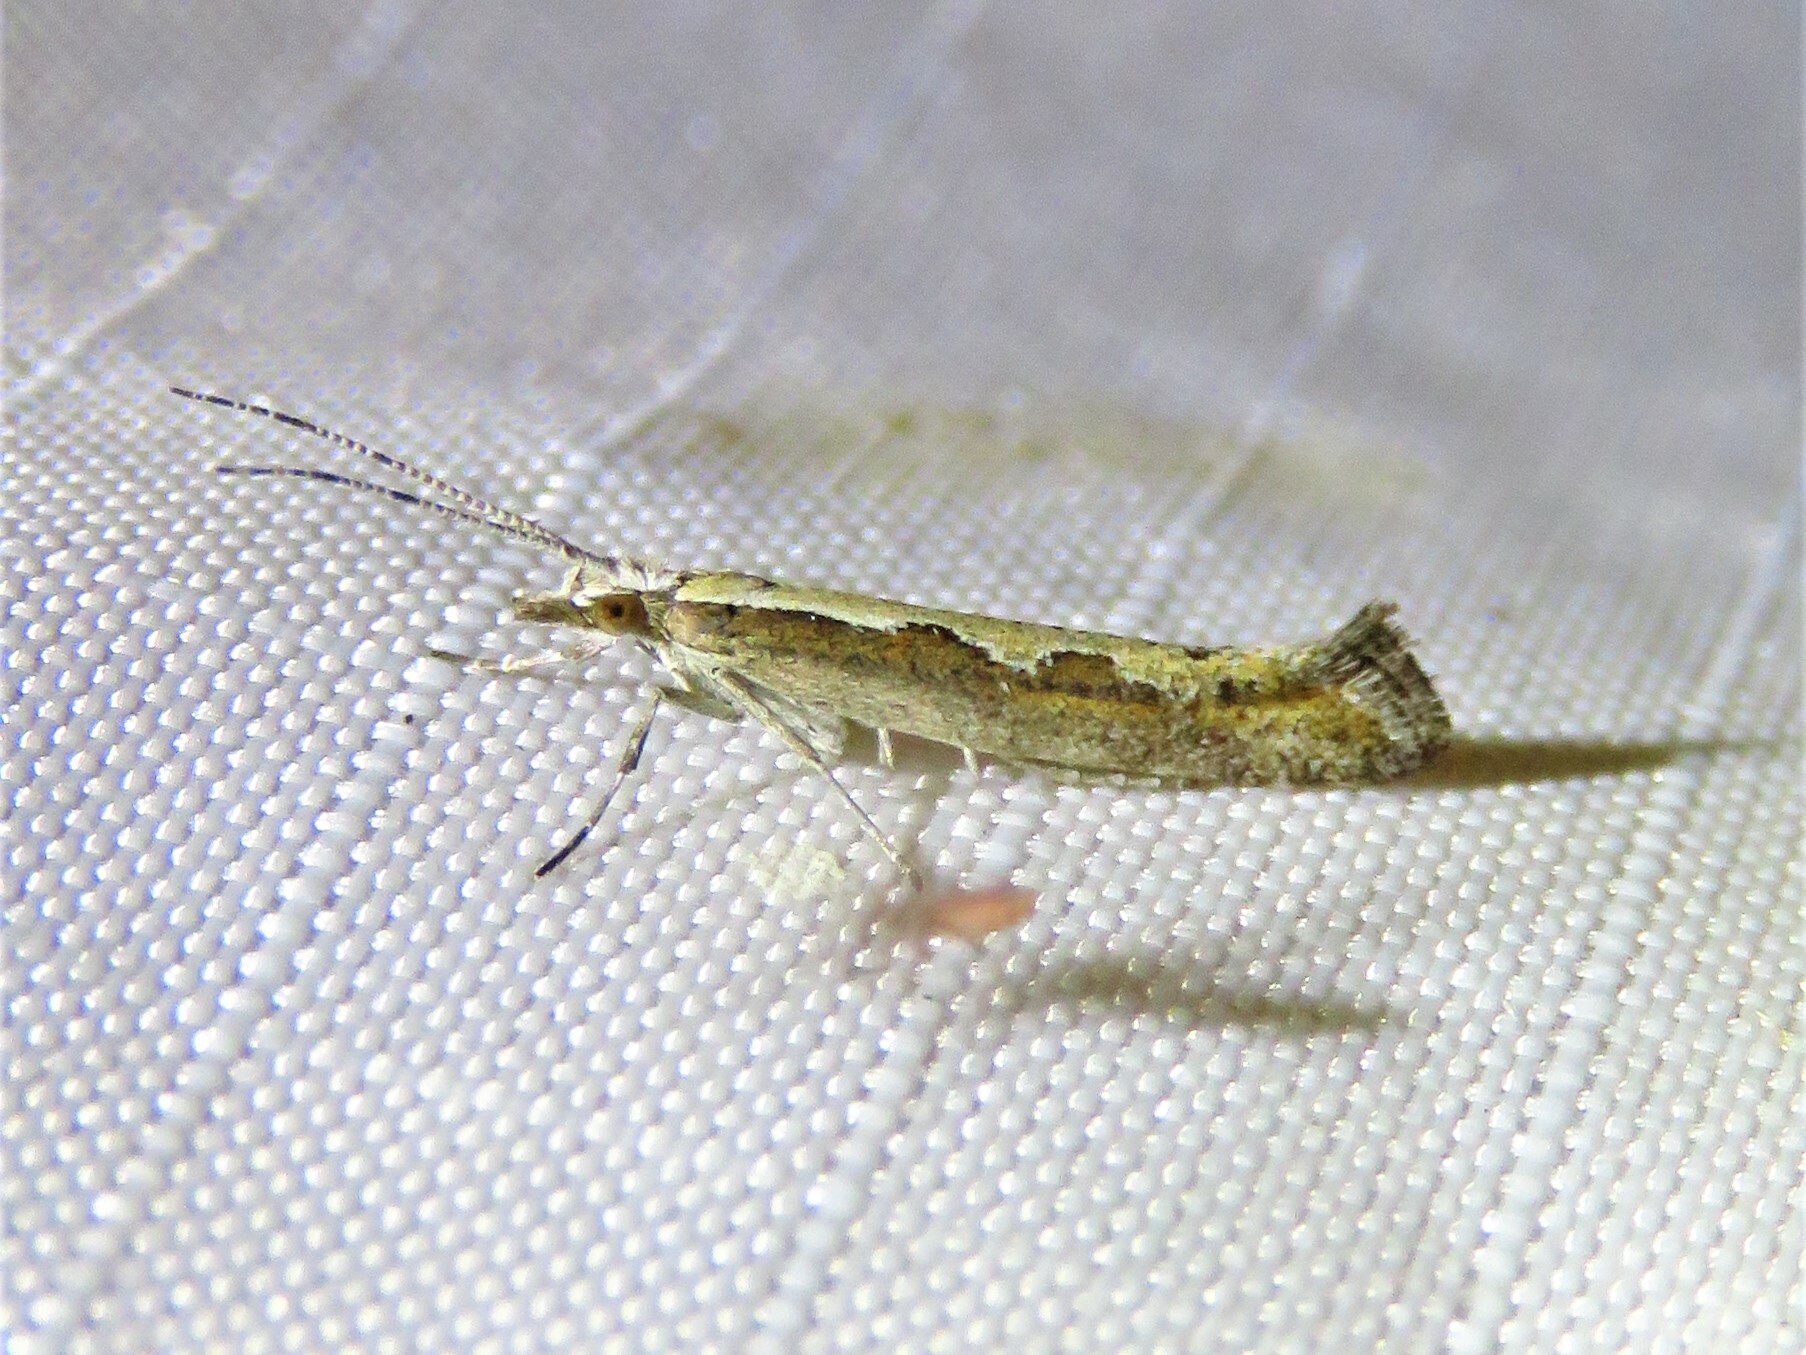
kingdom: Animalia
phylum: Arthropoda
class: Insecta
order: Lepidoptera
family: Plutellidae
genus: Plutella
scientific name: Plutella xylostella
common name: Diamond-back moth
